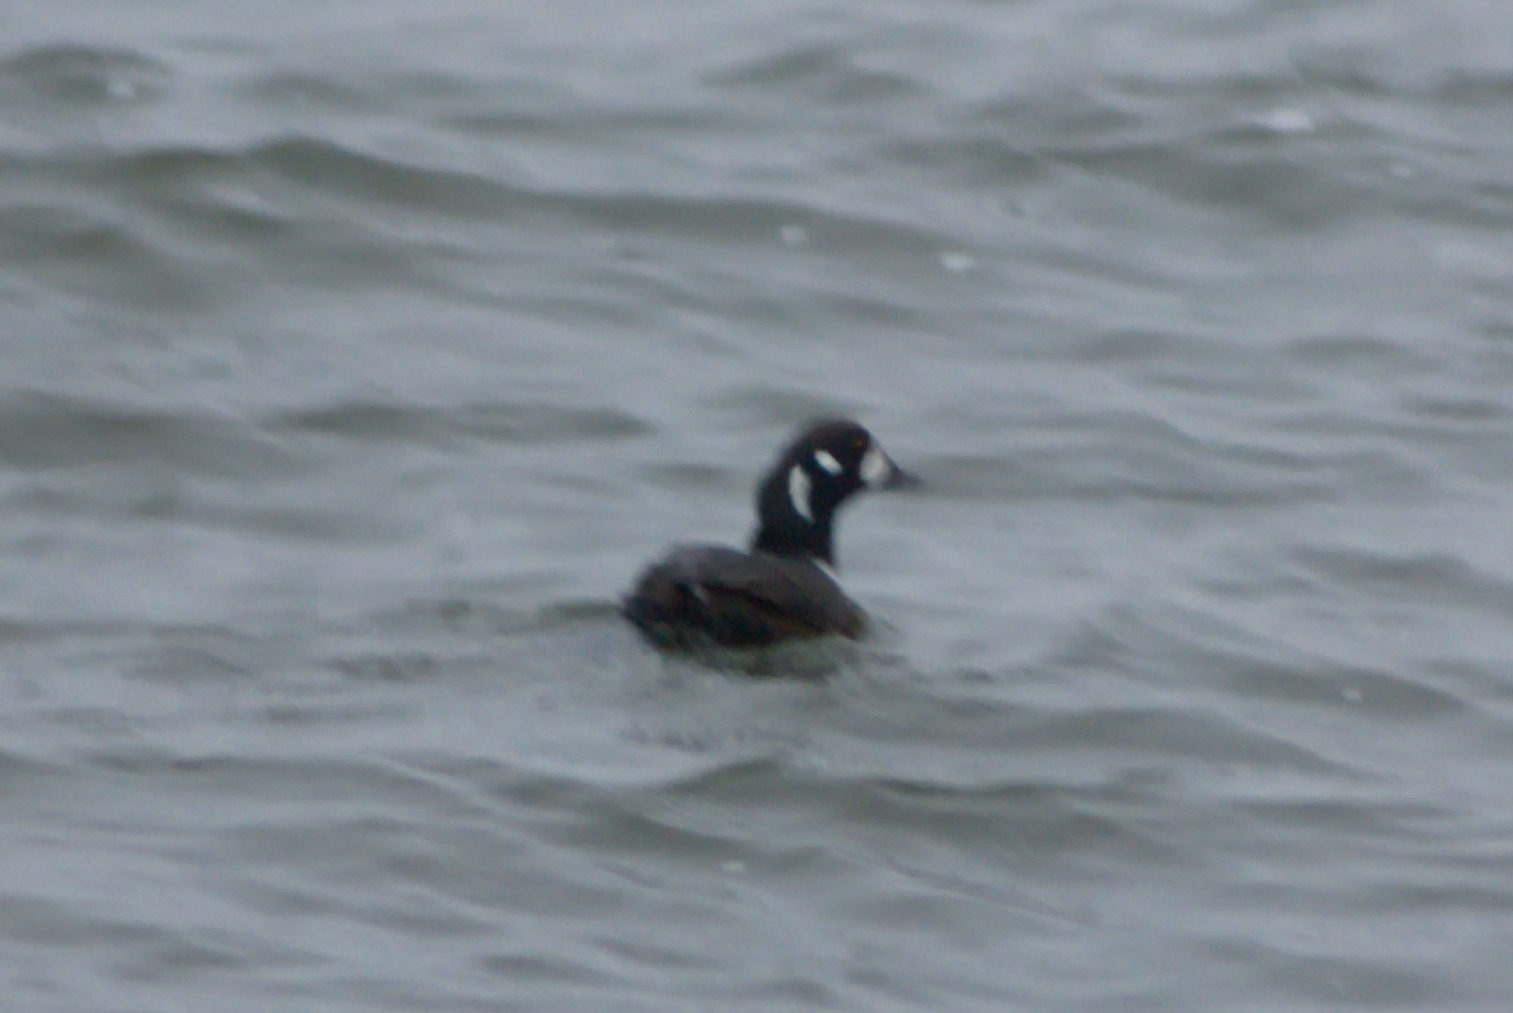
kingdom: Animalia
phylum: Chordata
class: Aves
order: Anseriformes
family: Anatidae
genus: Histrionicus
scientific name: Histrionicus histrionicus
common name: Harlequin duck
